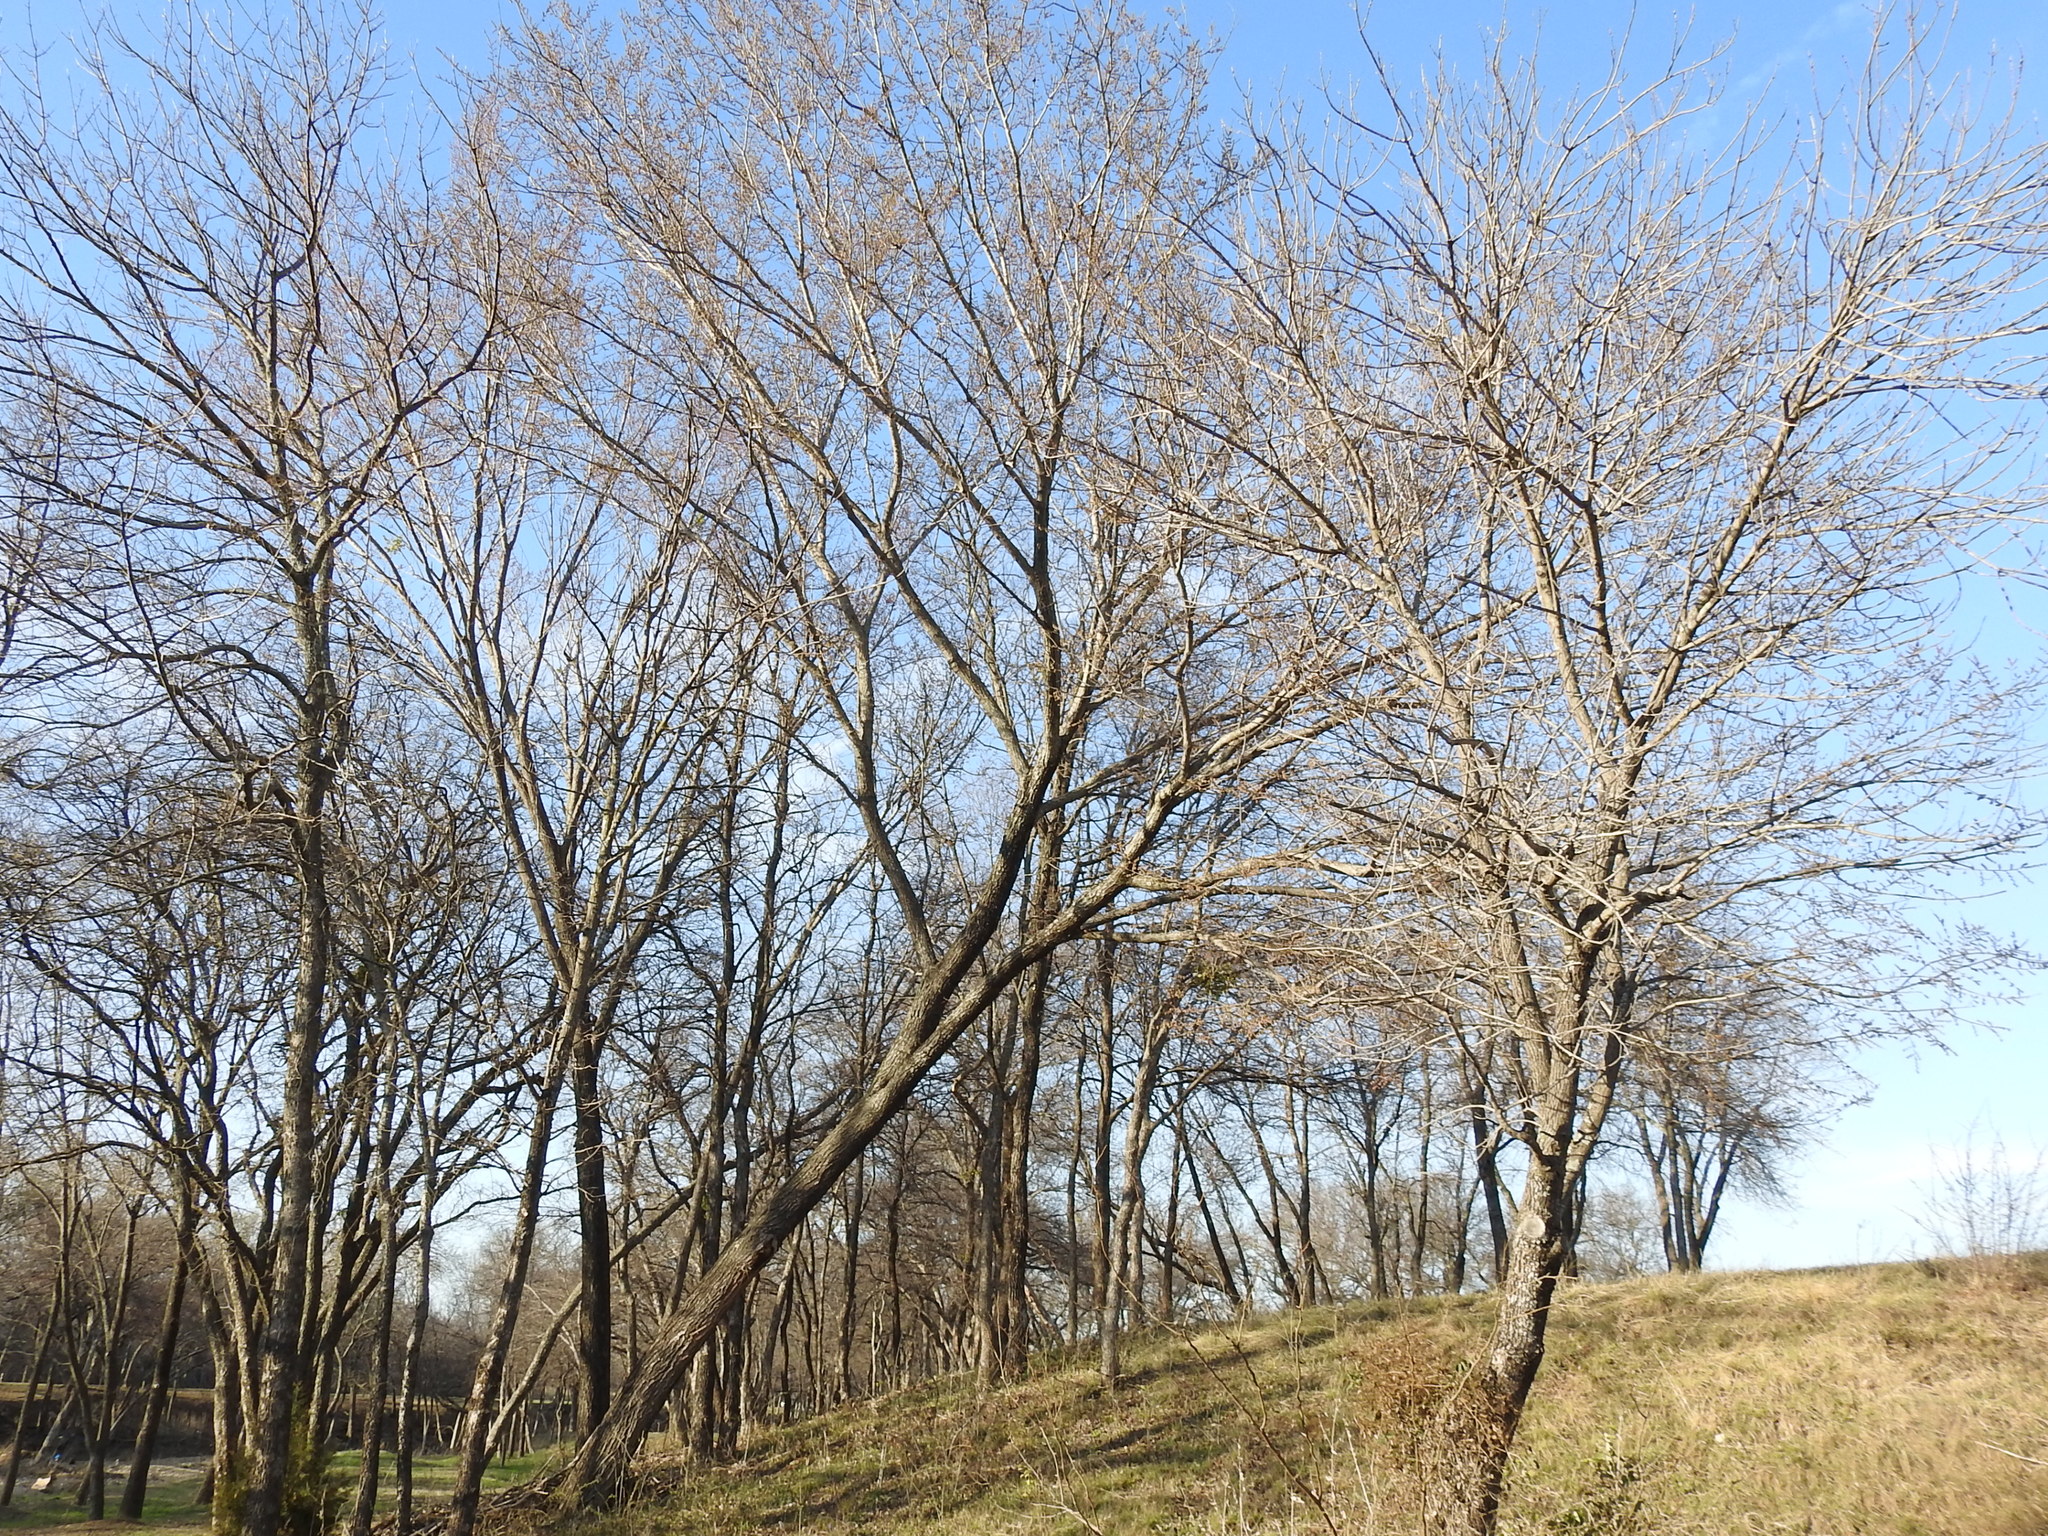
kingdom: Plantae
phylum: Tracheophyta
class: Magnoliopsida
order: Rosales
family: Ulmaceae
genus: Ulmus
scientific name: Ulmus americana
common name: American elm
